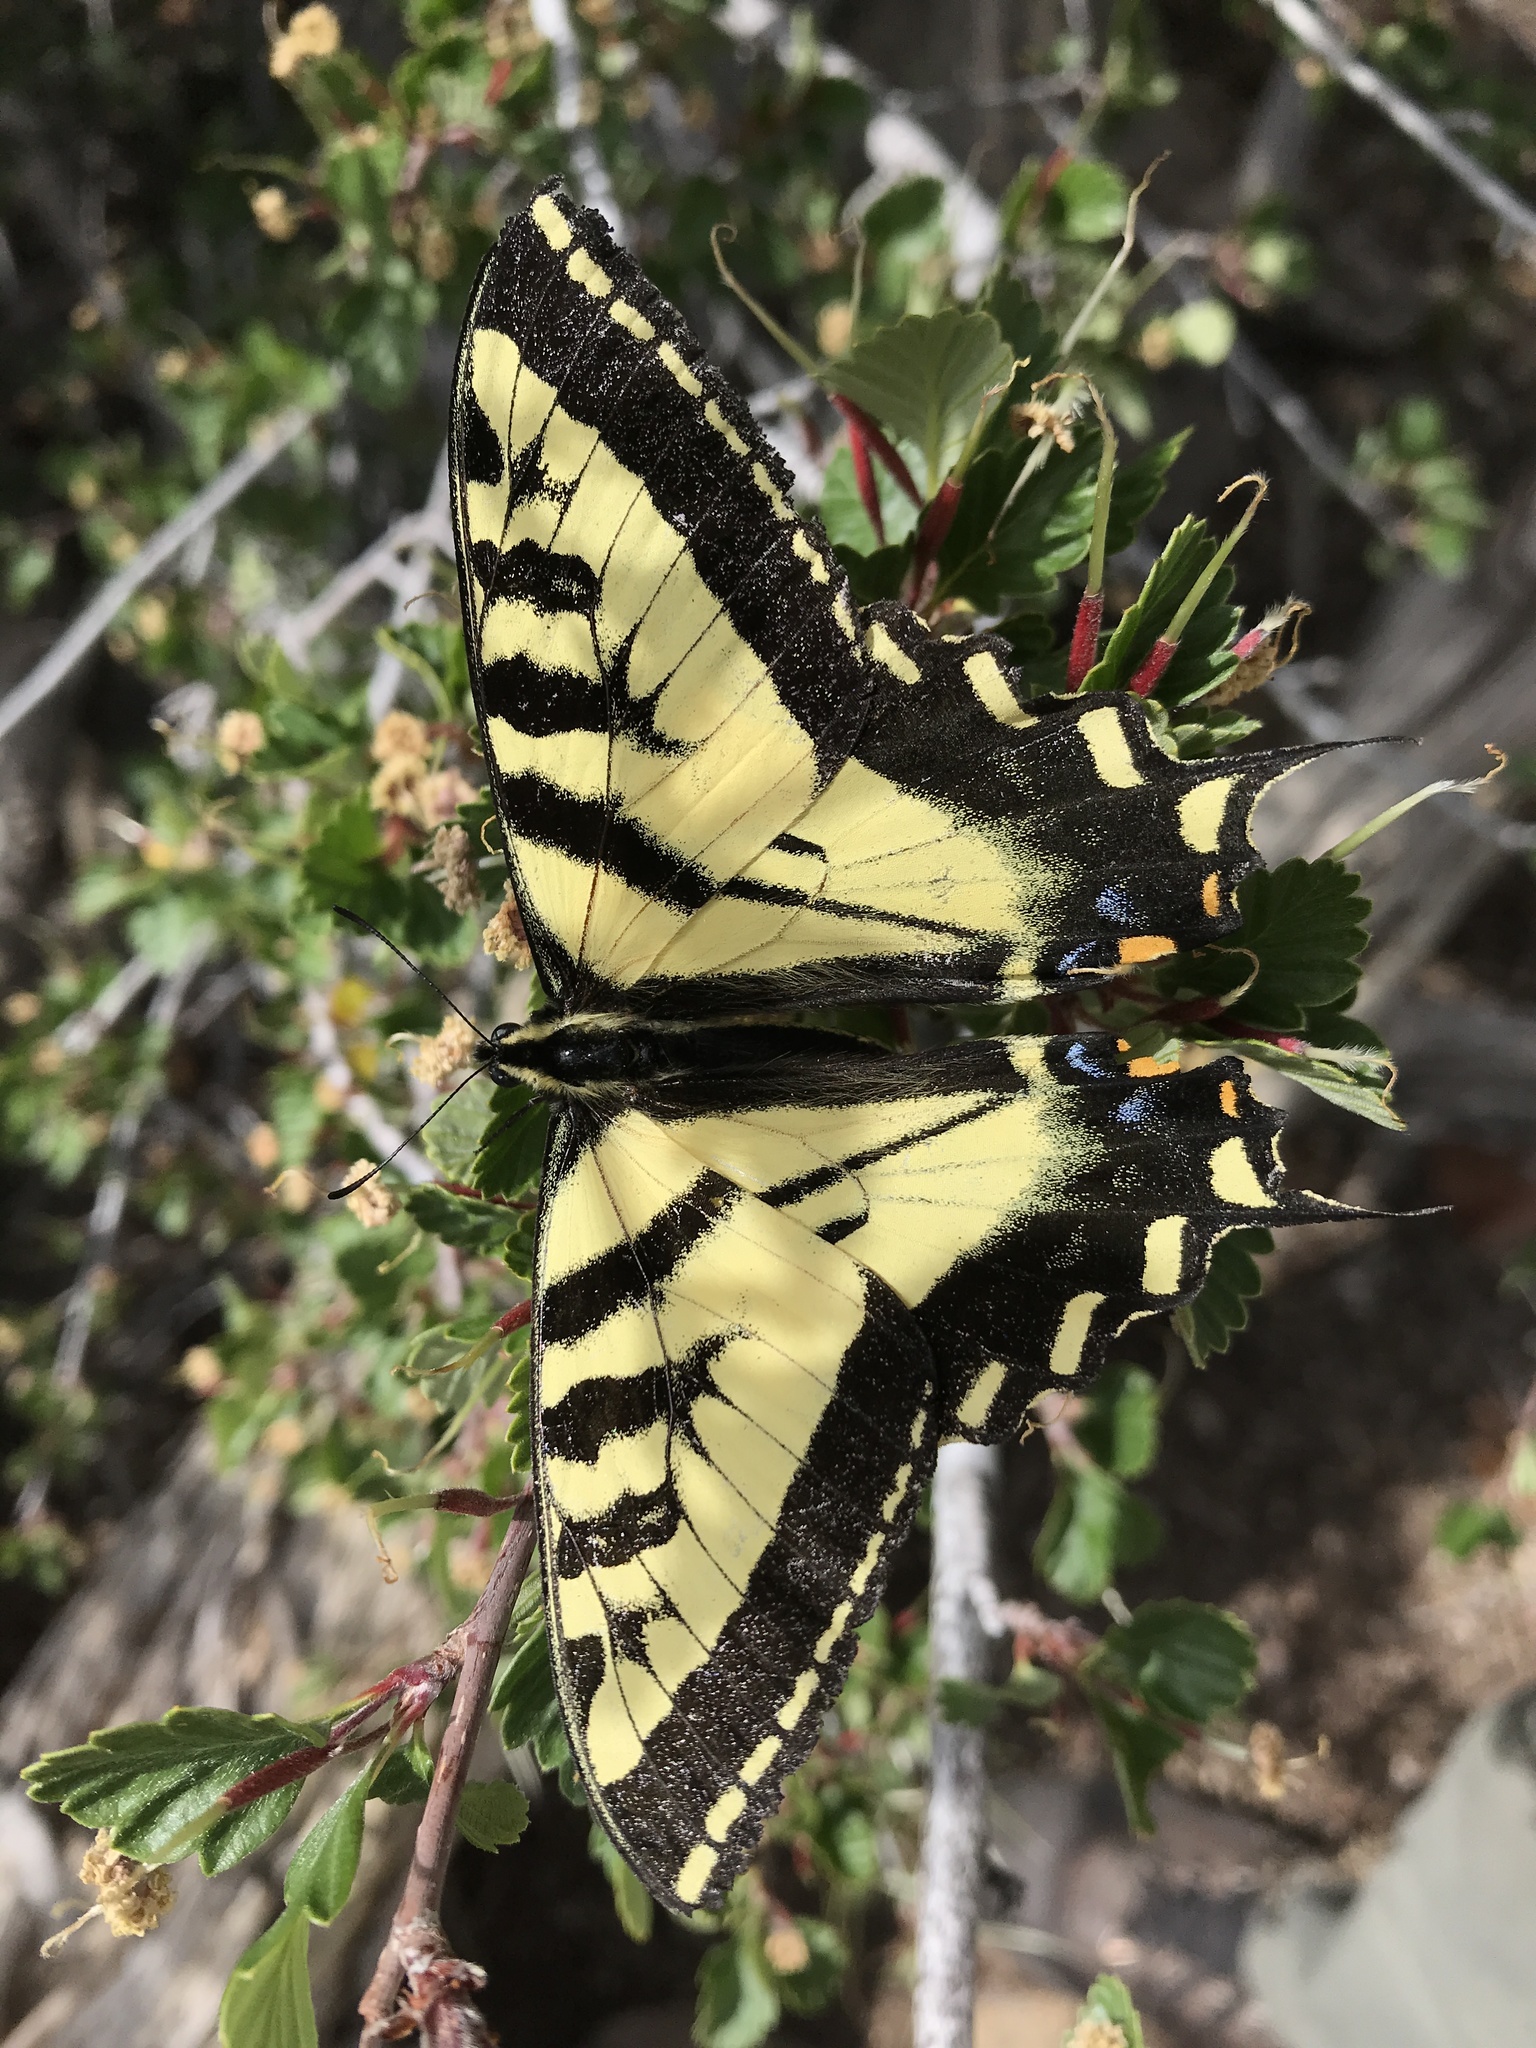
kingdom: Animalia
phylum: Arthropoda
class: Insecta
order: Lepidoptera
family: Papilionidae
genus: Papilio
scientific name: Papilio rutulus
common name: Western tiger swallowtail
